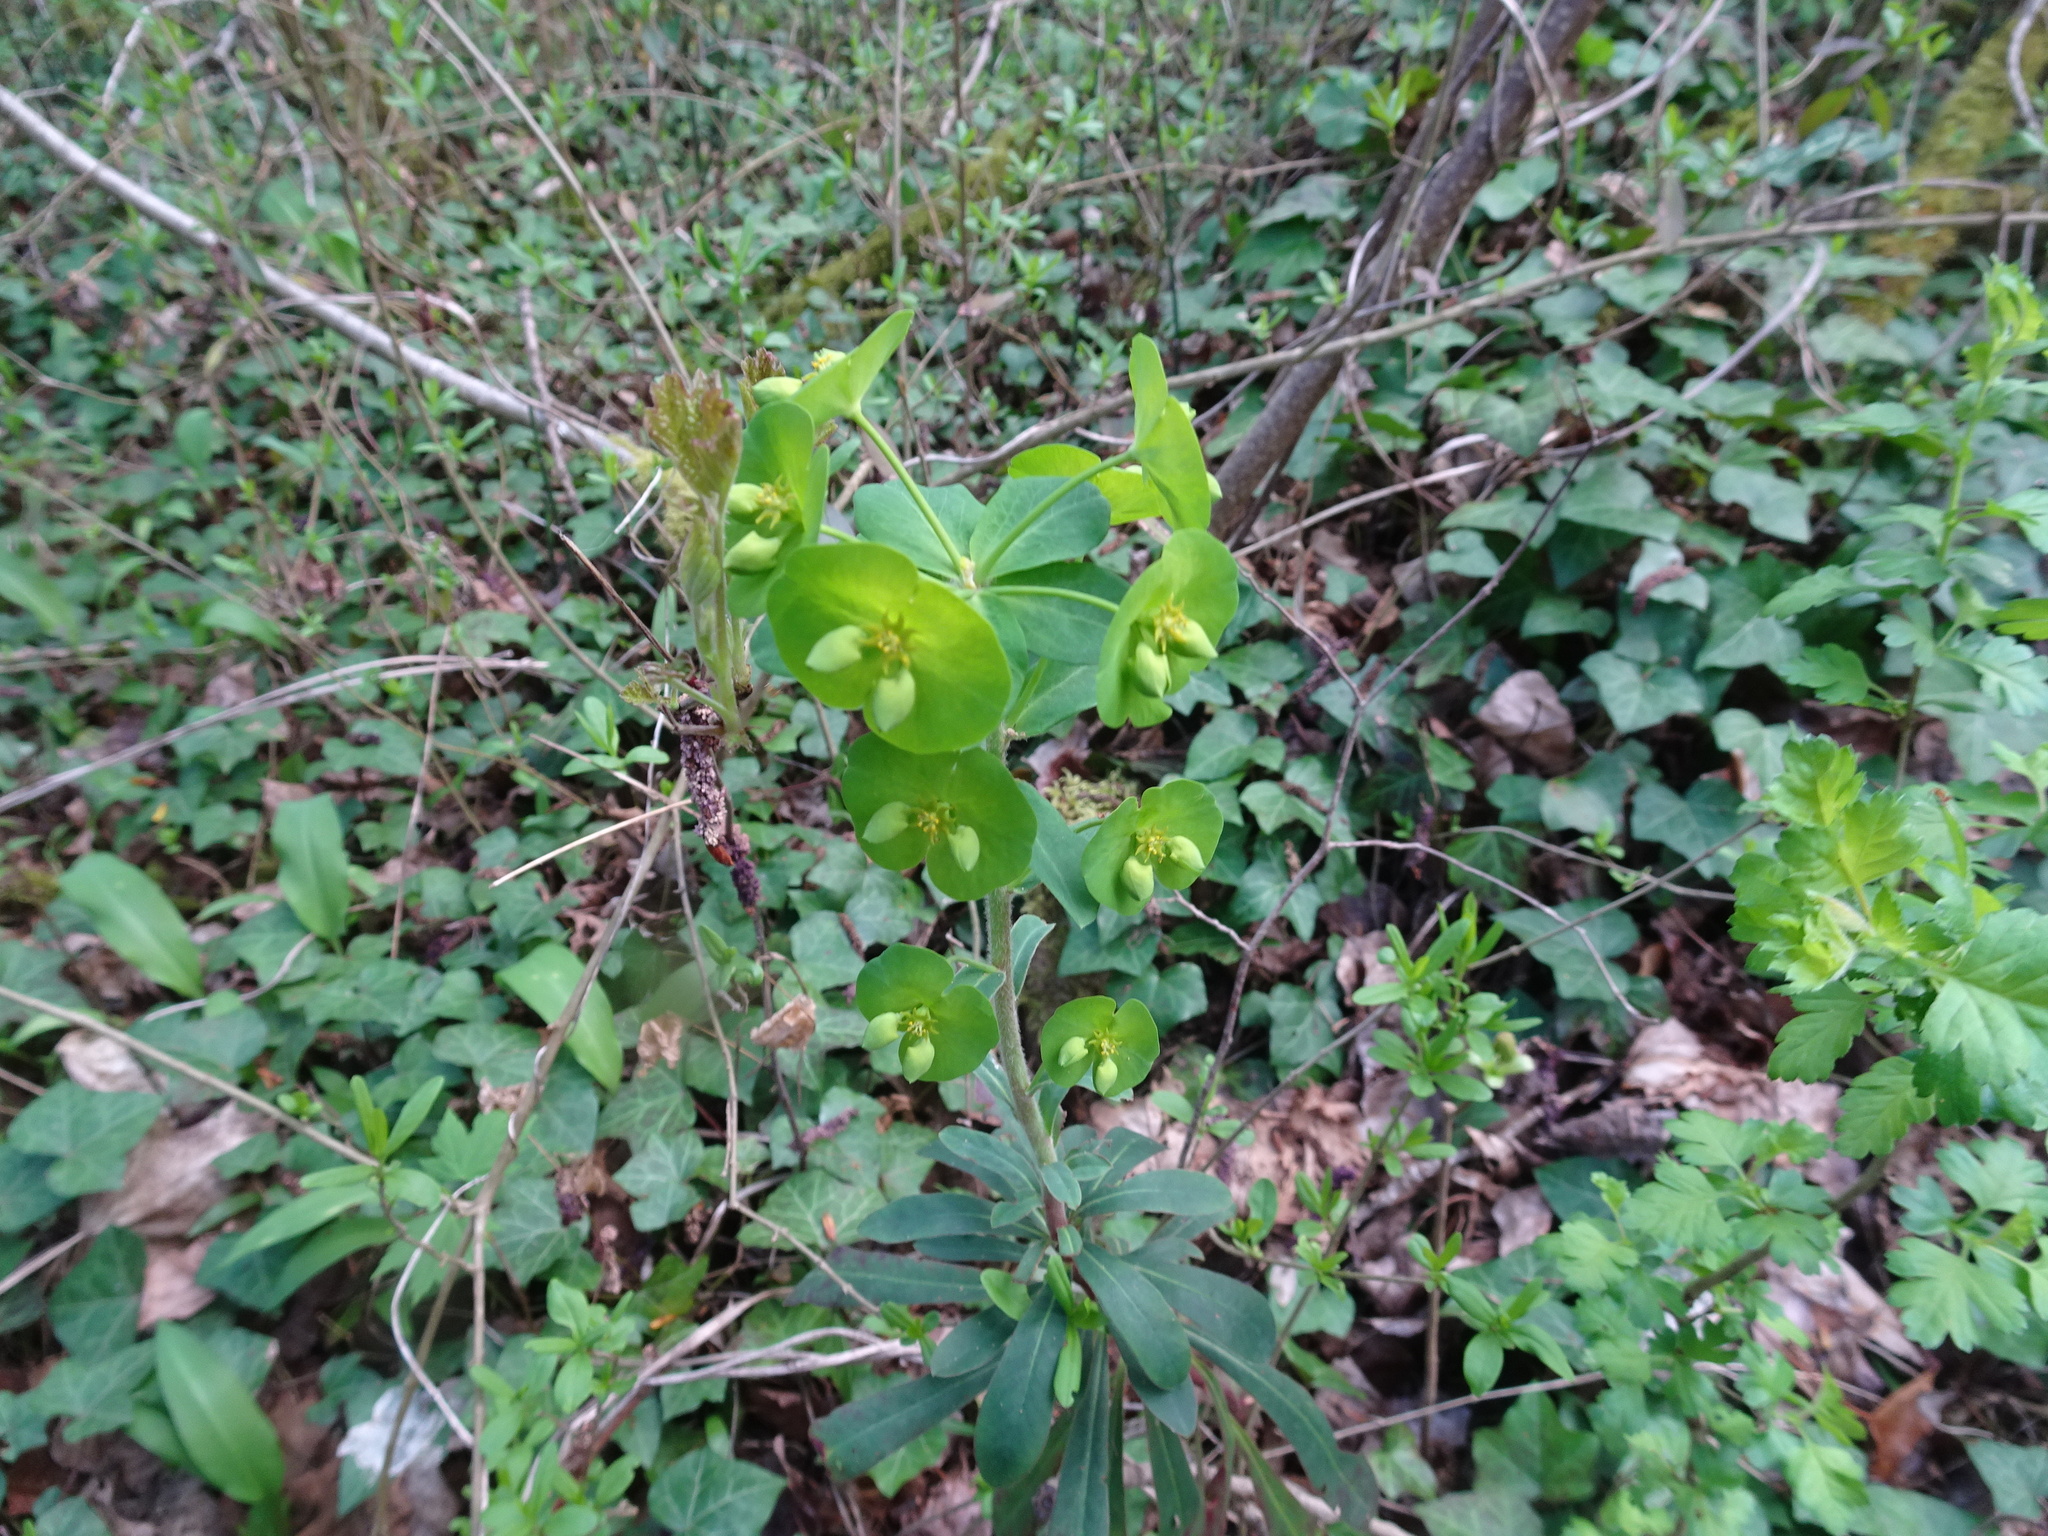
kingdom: Plantae
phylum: Tracheophyta
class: Magnoliopsida
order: Malpighiales
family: Euphorbiaceae
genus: Euphorbia
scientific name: Euphorbia amygdaloides
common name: Wood spurge
